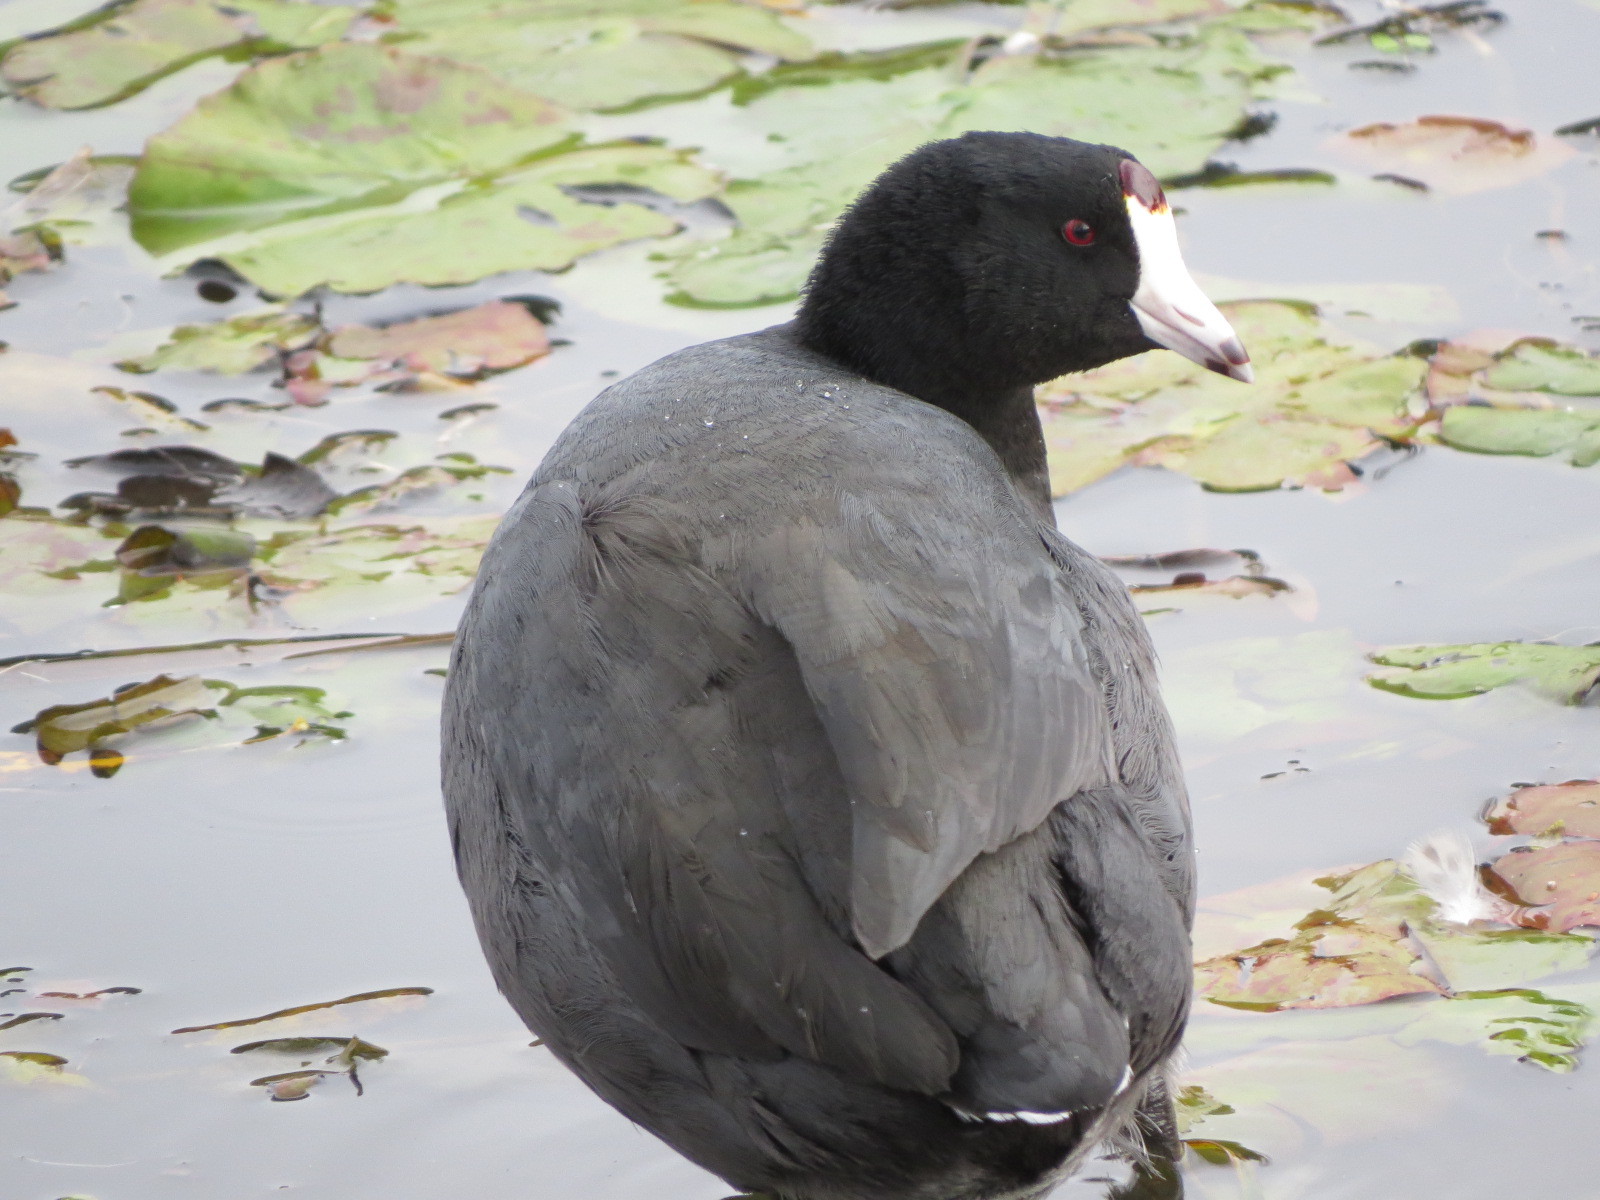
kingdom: Animalia
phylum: Chordata
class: Aves
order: Gruiformes
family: Rallidae
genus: Fulica
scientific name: Fulica americana
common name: American coot
